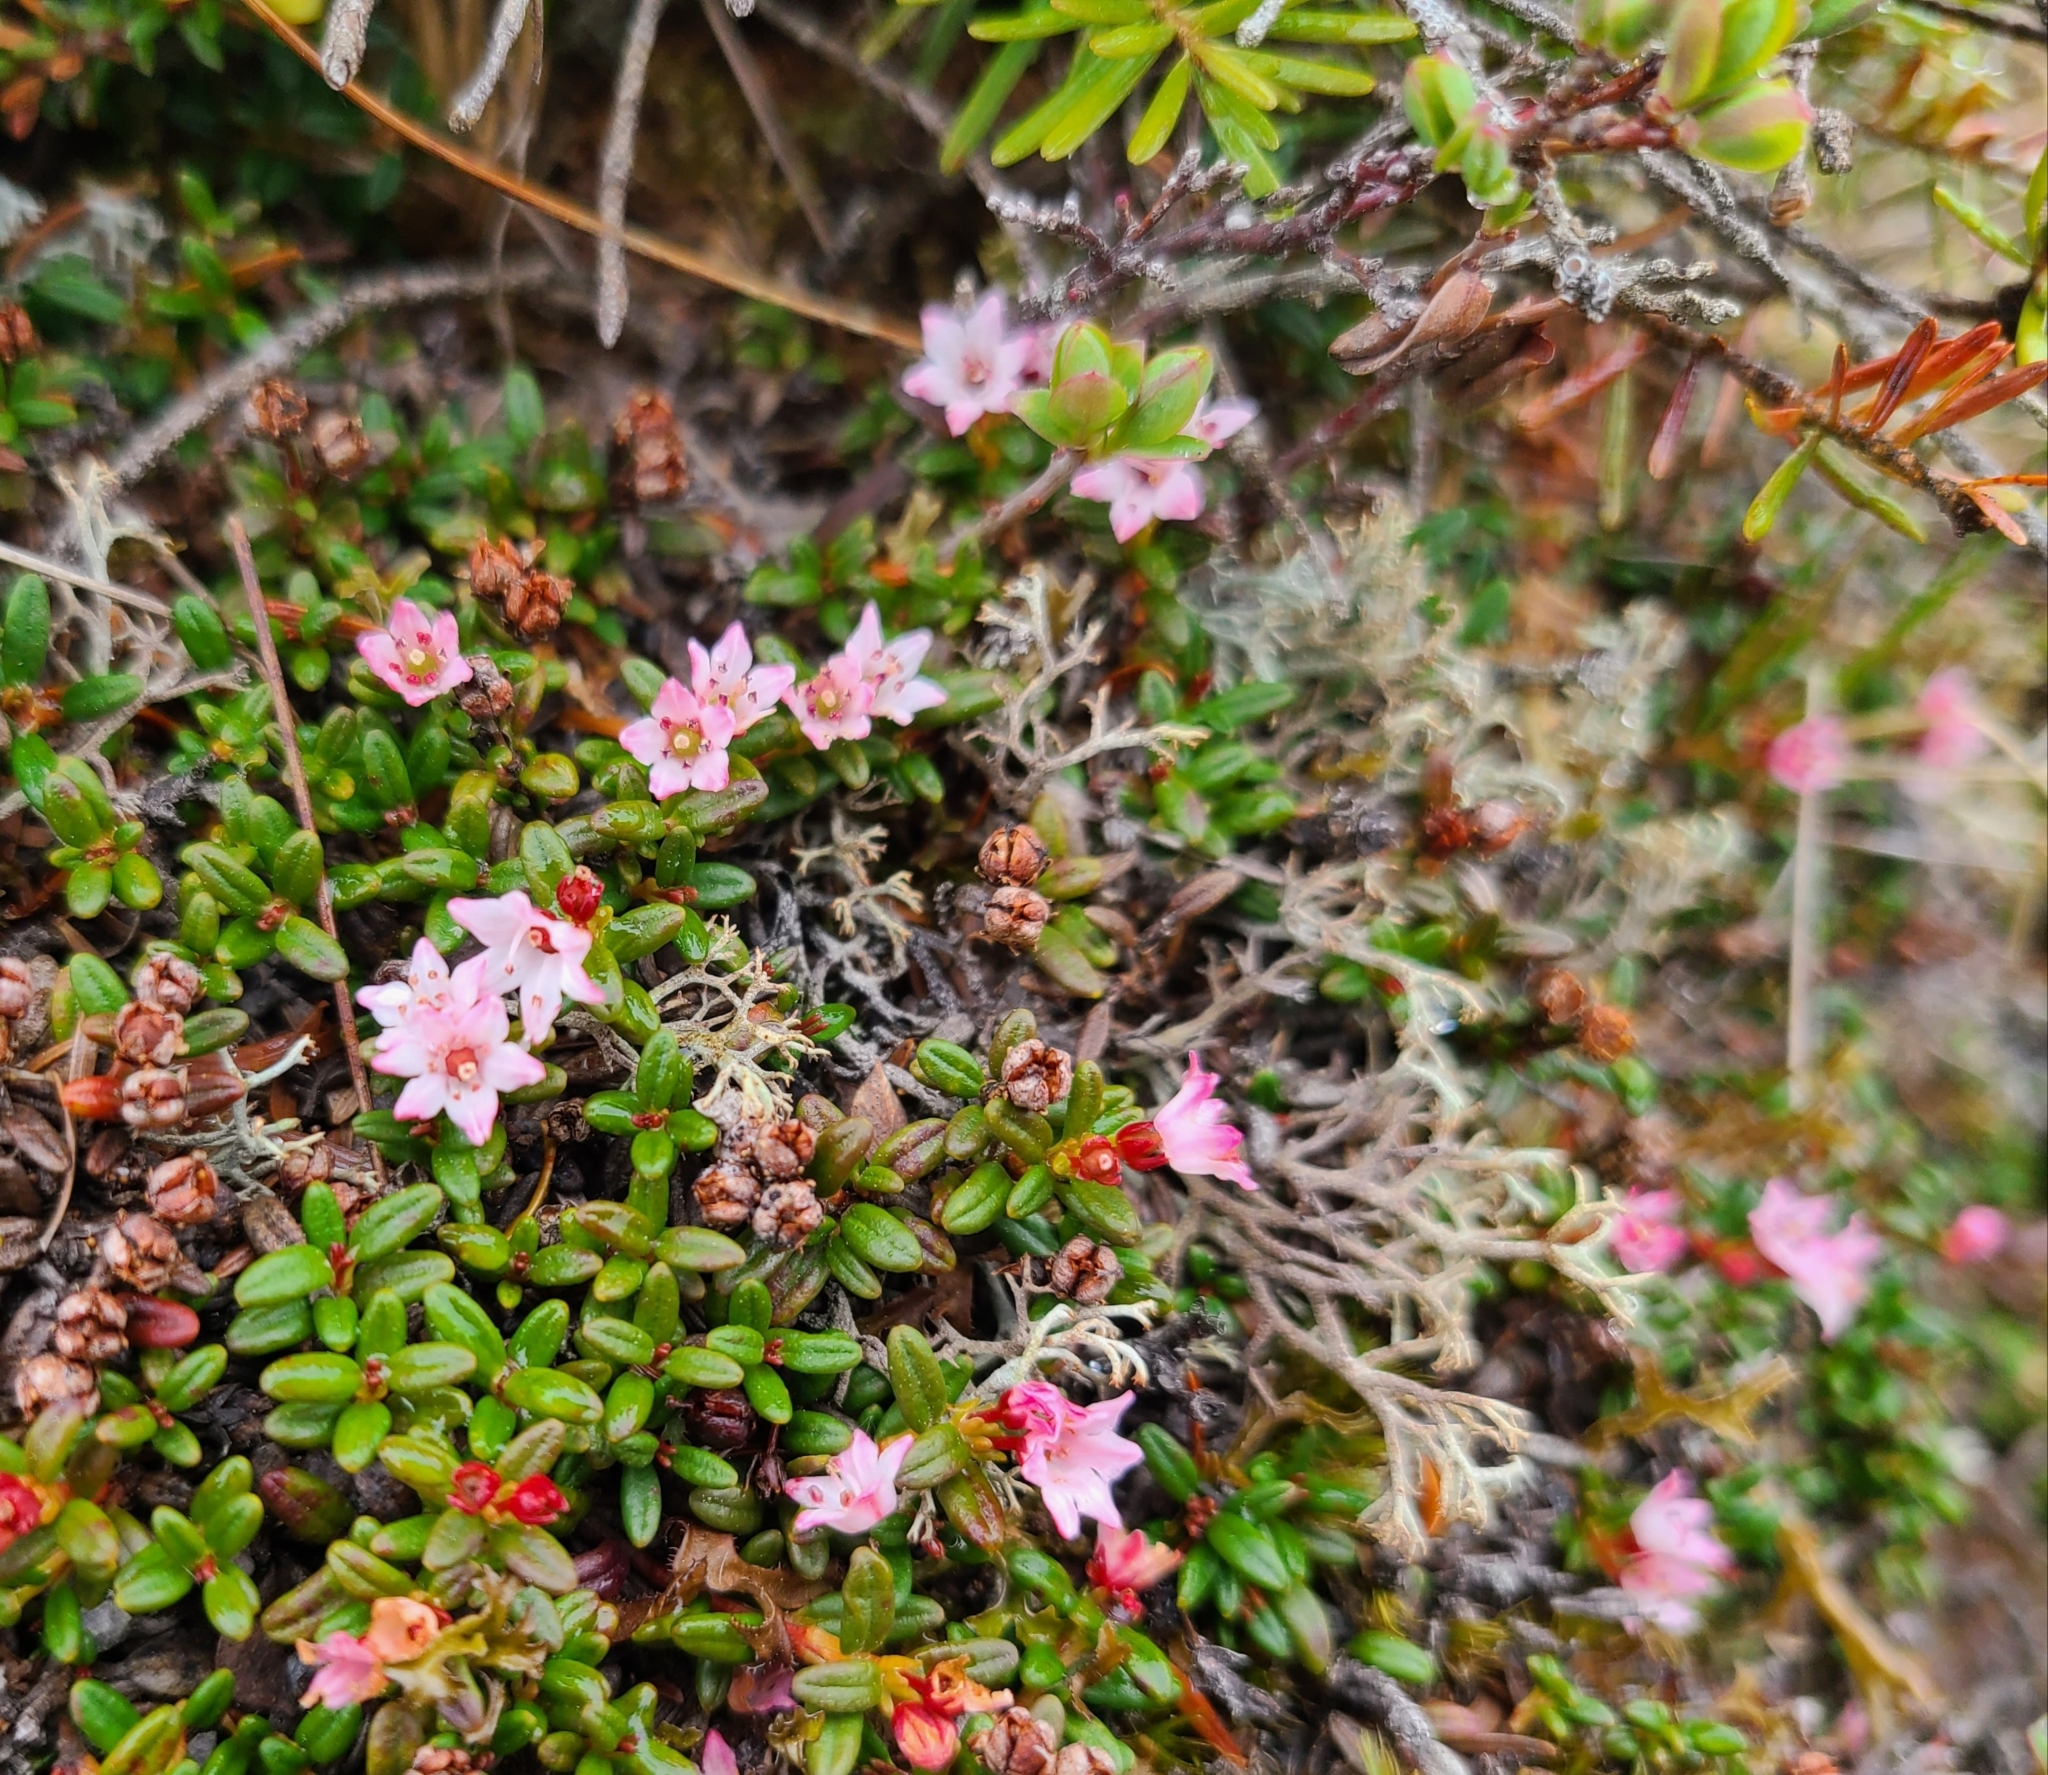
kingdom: Plantae
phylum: Tracheophyta
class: Magnoliopsida
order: Ericales
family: Ericaceae
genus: Kalmia
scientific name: Kalmia procumbens
